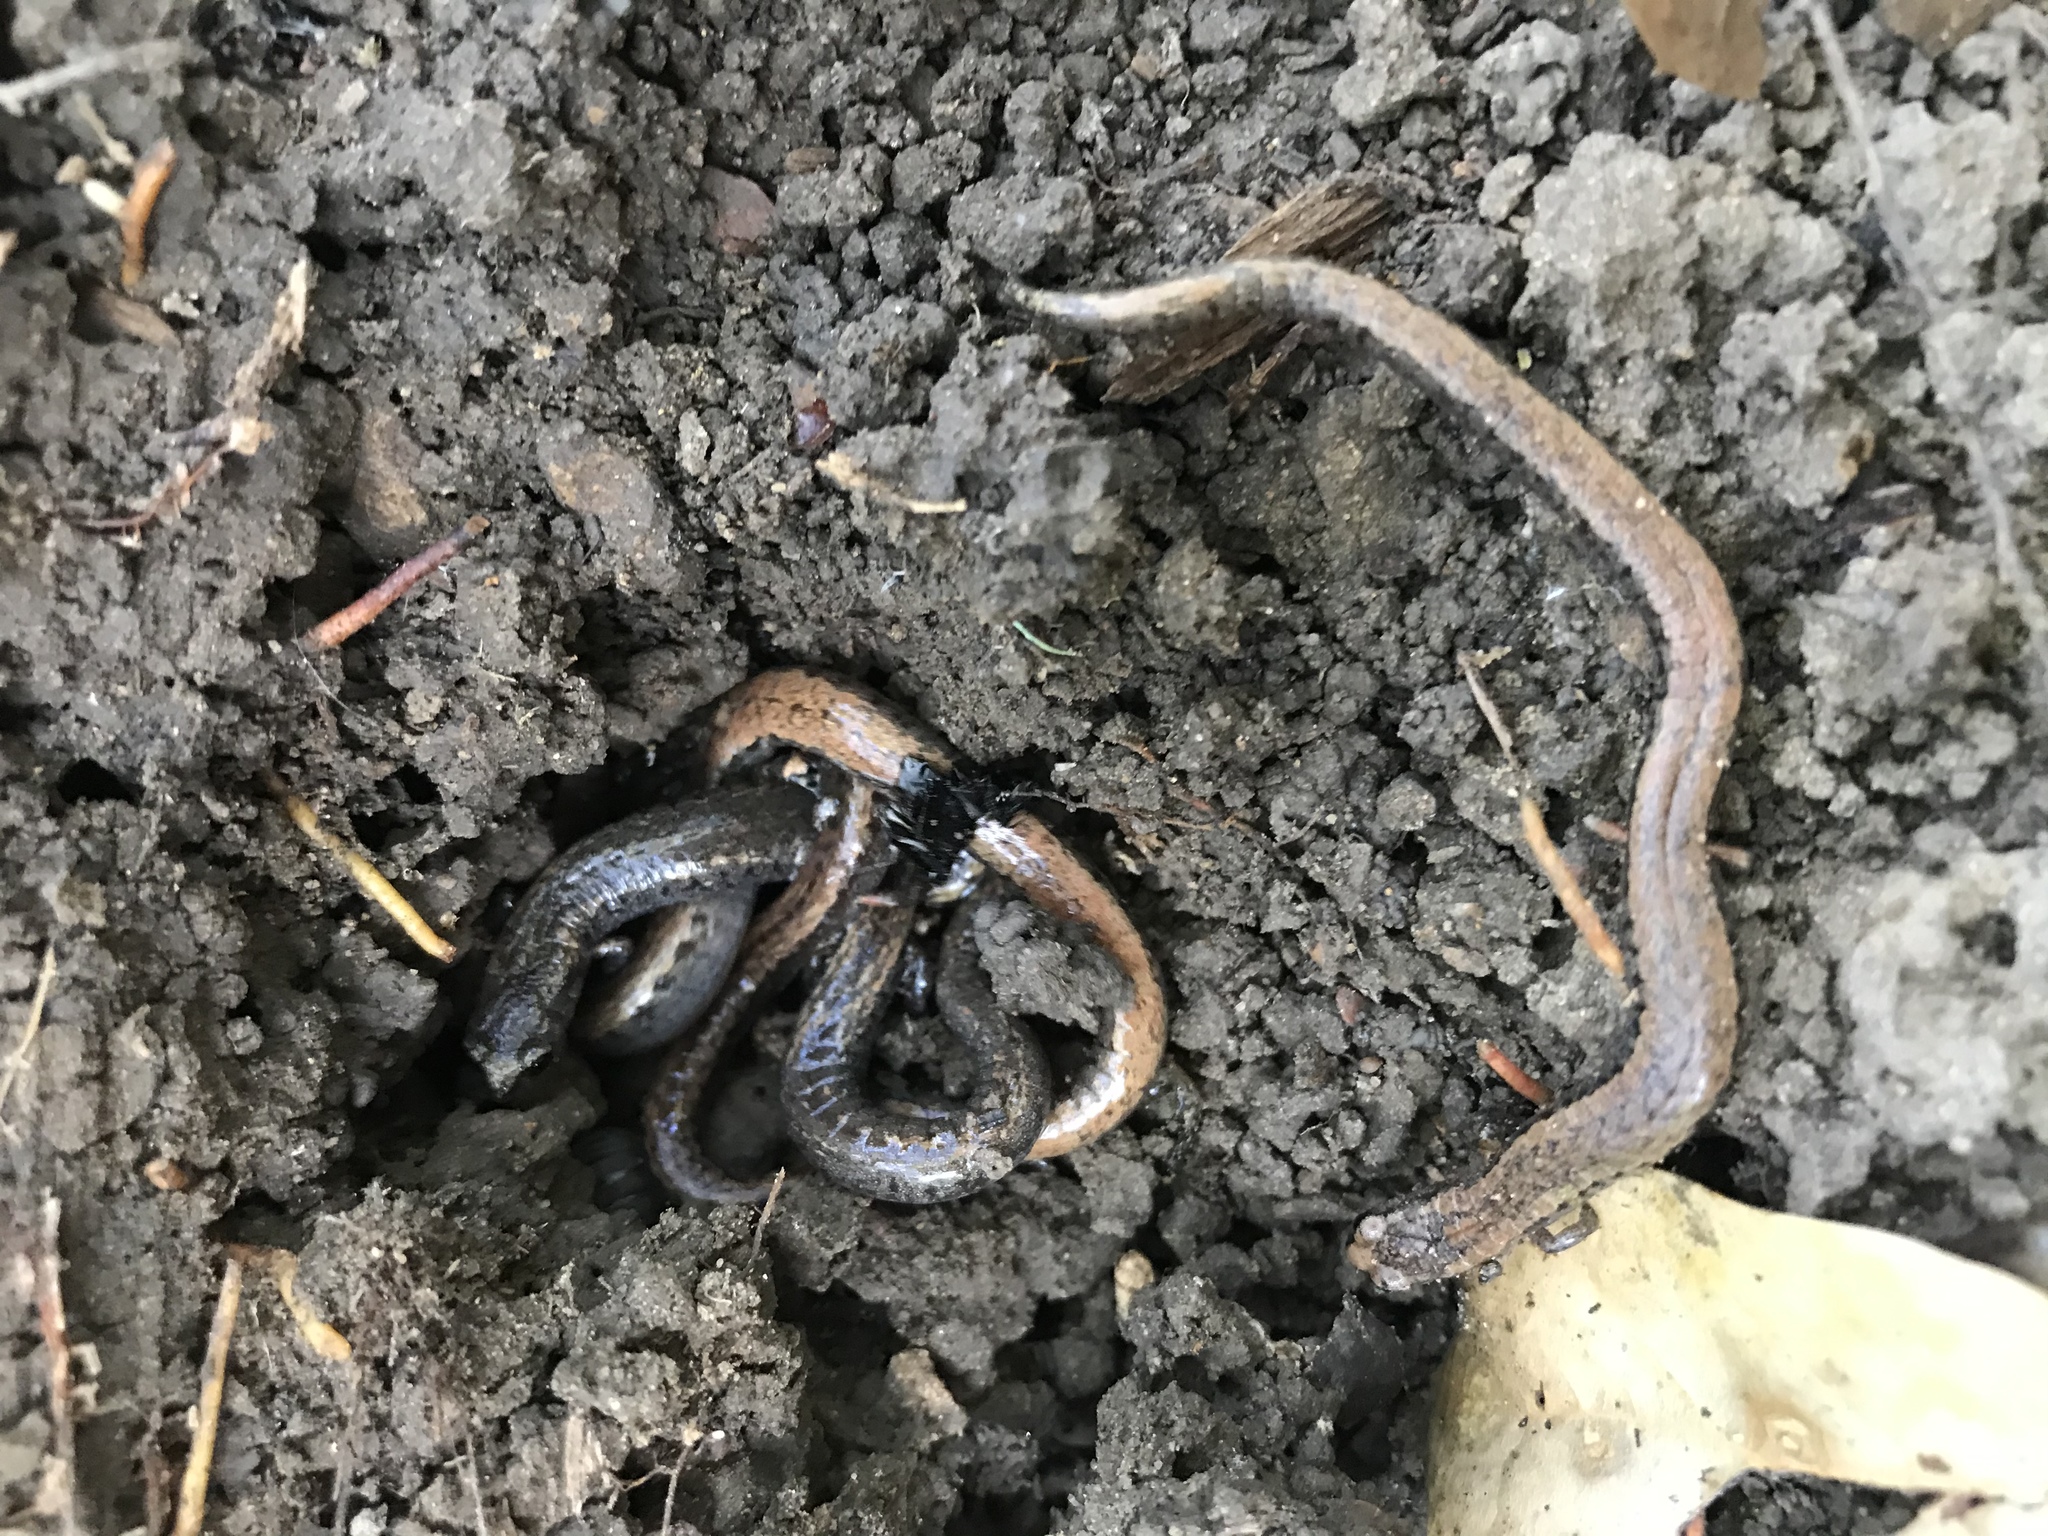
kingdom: Animalia
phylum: Chordata
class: Amphibia
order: Caudata
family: Plethodontidae
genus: Batrachoseps
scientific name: Batrachoseps attenuatus
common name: California slender salamander
